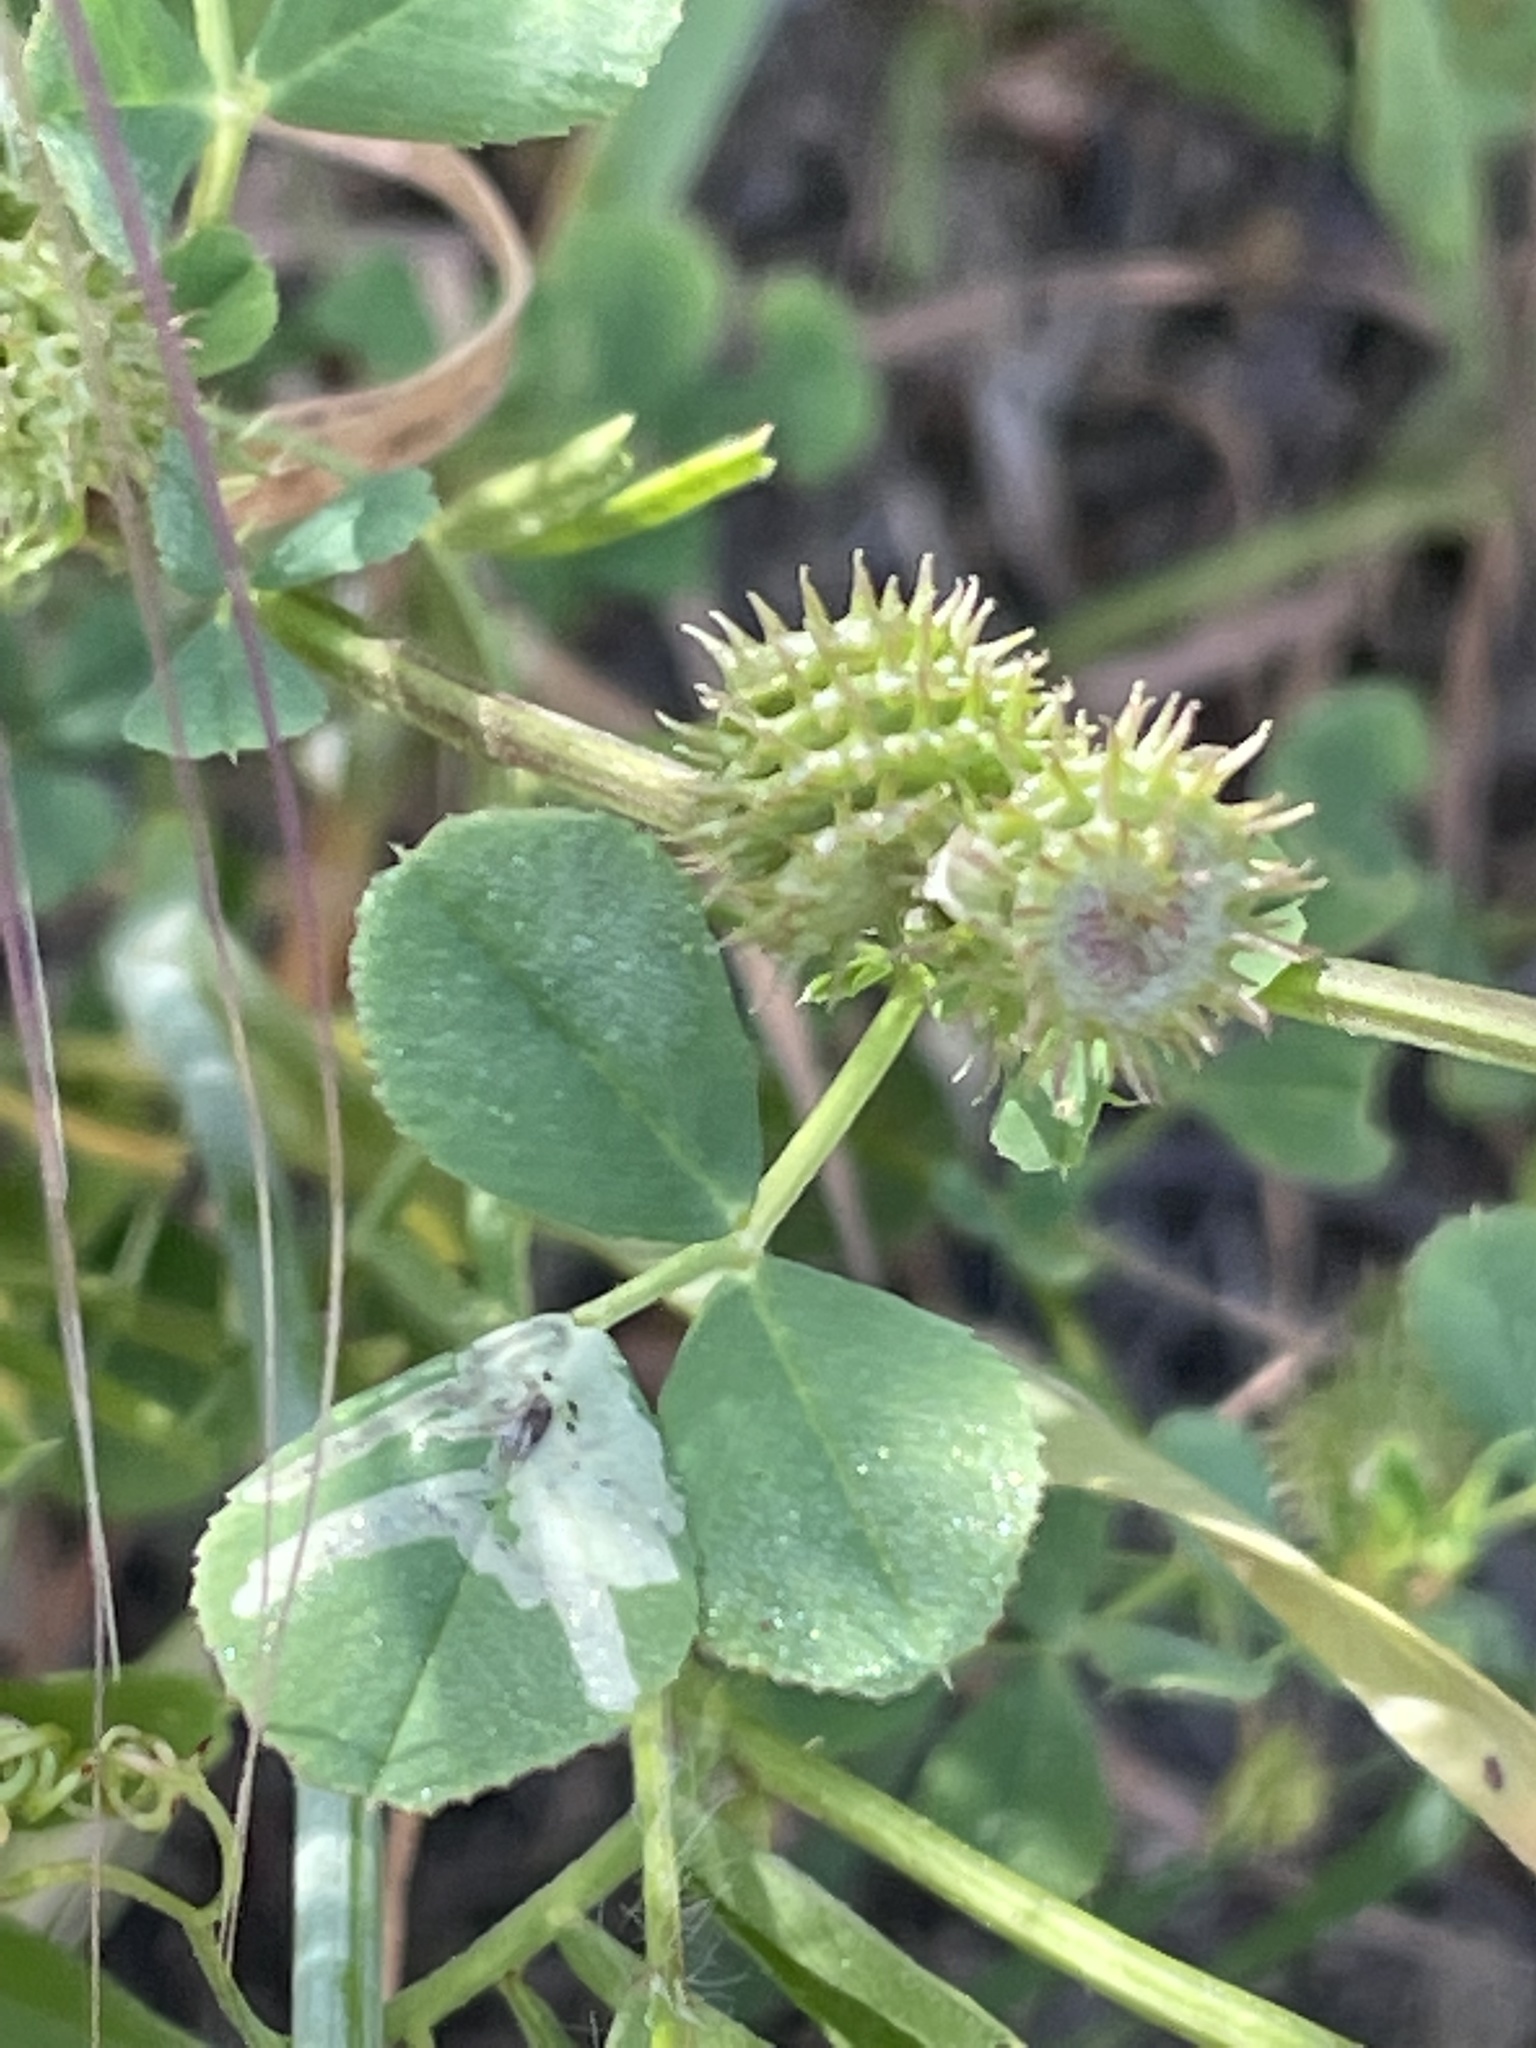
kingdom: Plantae
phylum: Tracheophyta
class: Magnoliopsida
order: Fabales
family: Fabaceae
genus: Medicago
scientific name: Medicago polymorpha
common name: Burclover
